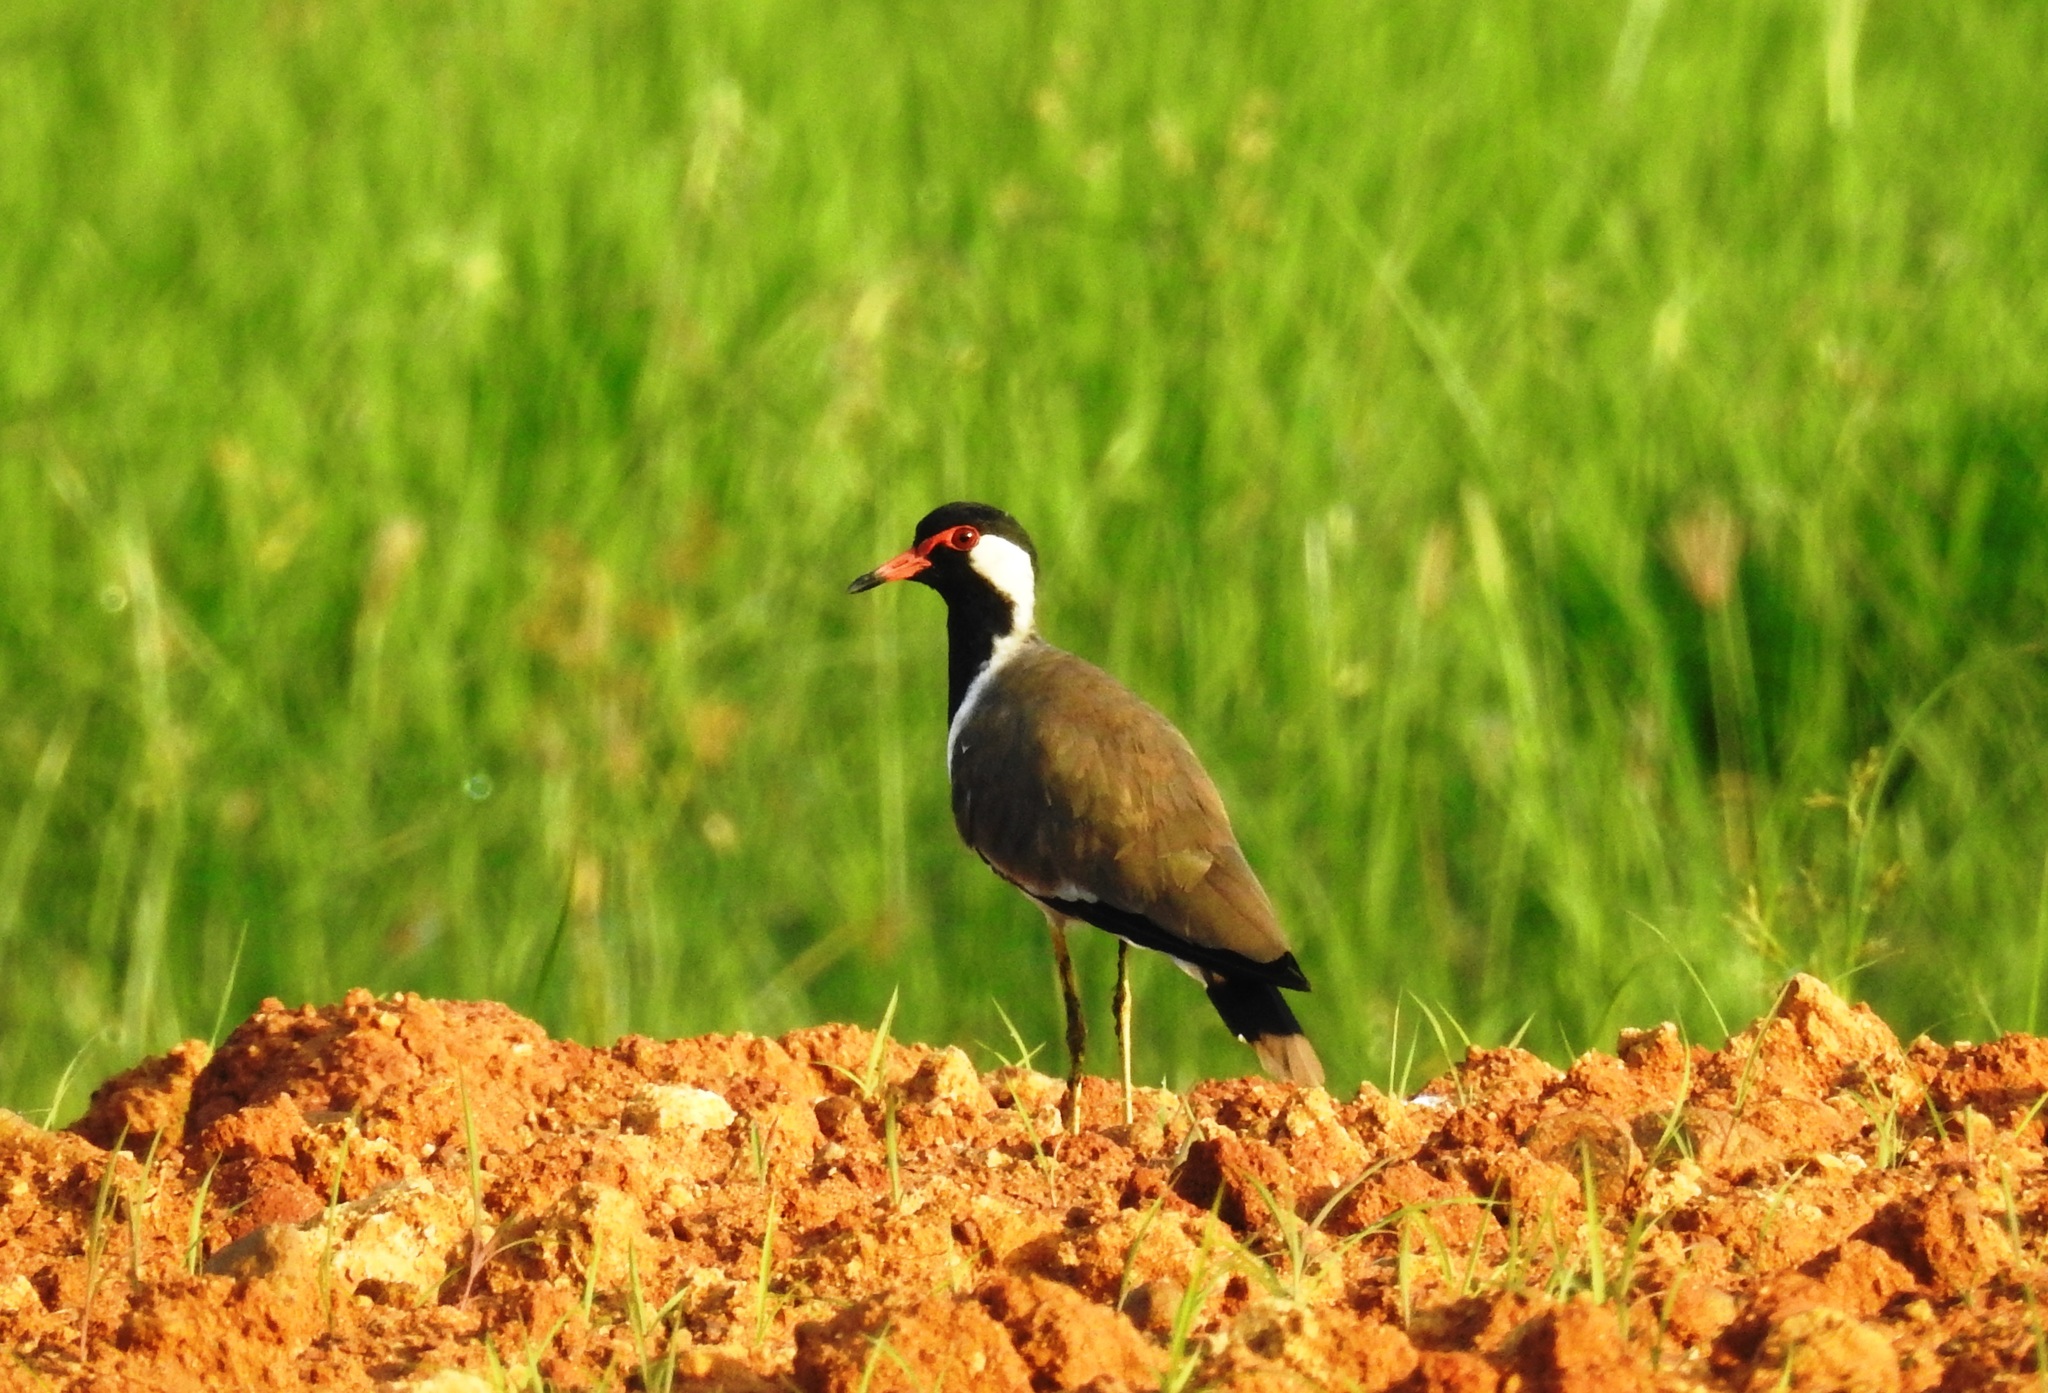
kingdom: Animalia
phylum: Chordata
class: Aves
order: Charadriiformes
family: Charadriidae
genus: Vanellus
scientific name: Vanellus indicus
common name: Red-wattled lapwing
